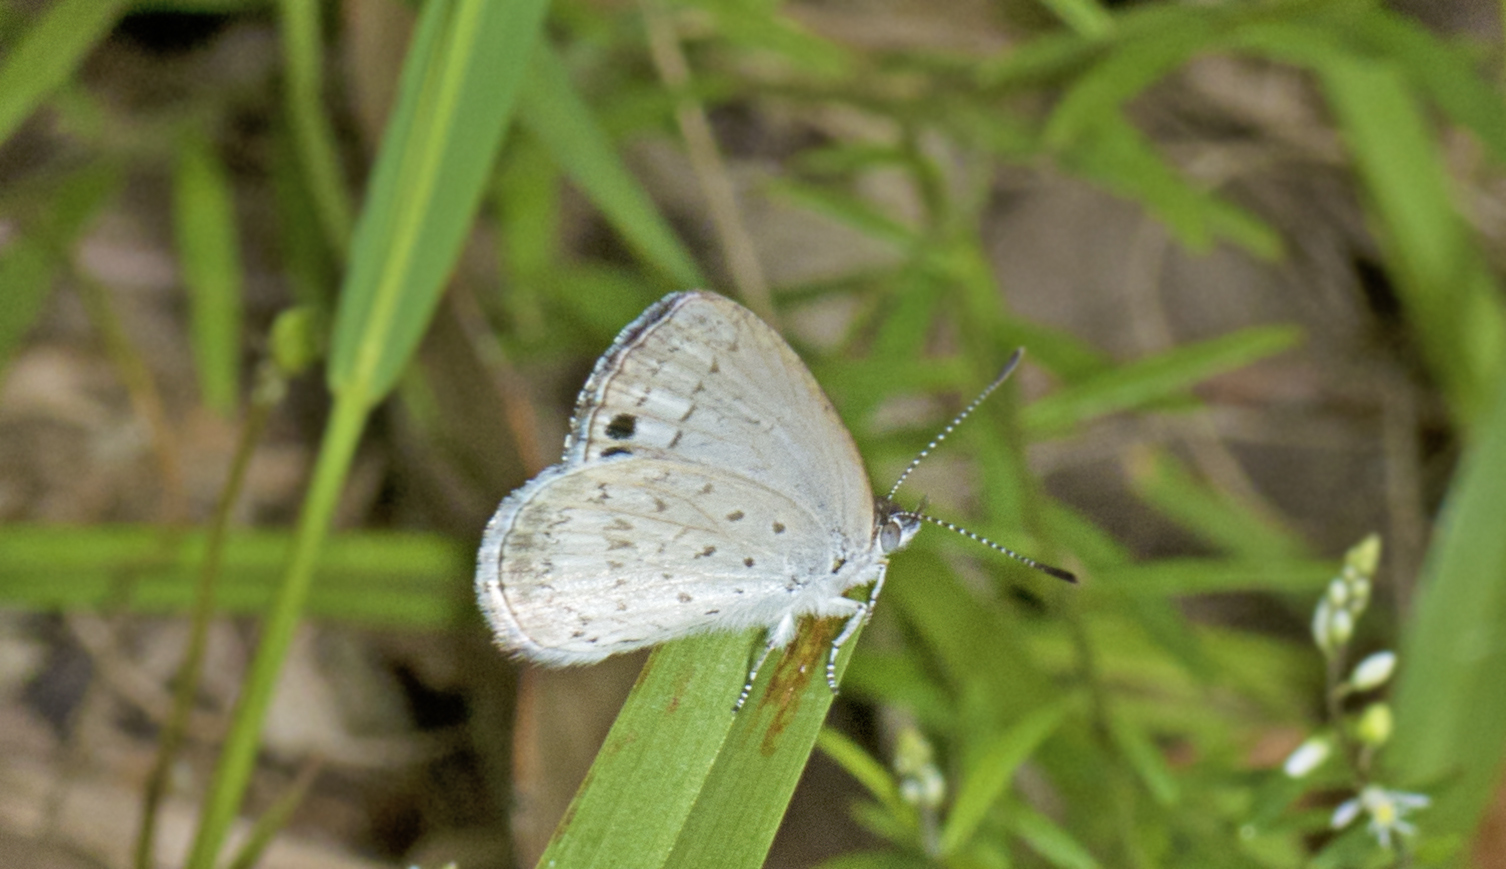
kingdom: Animalia
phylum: Arthropoda
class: Insecta
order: Lepidoptera
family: Lycaenidae
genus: Candalides
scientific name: Candalides
